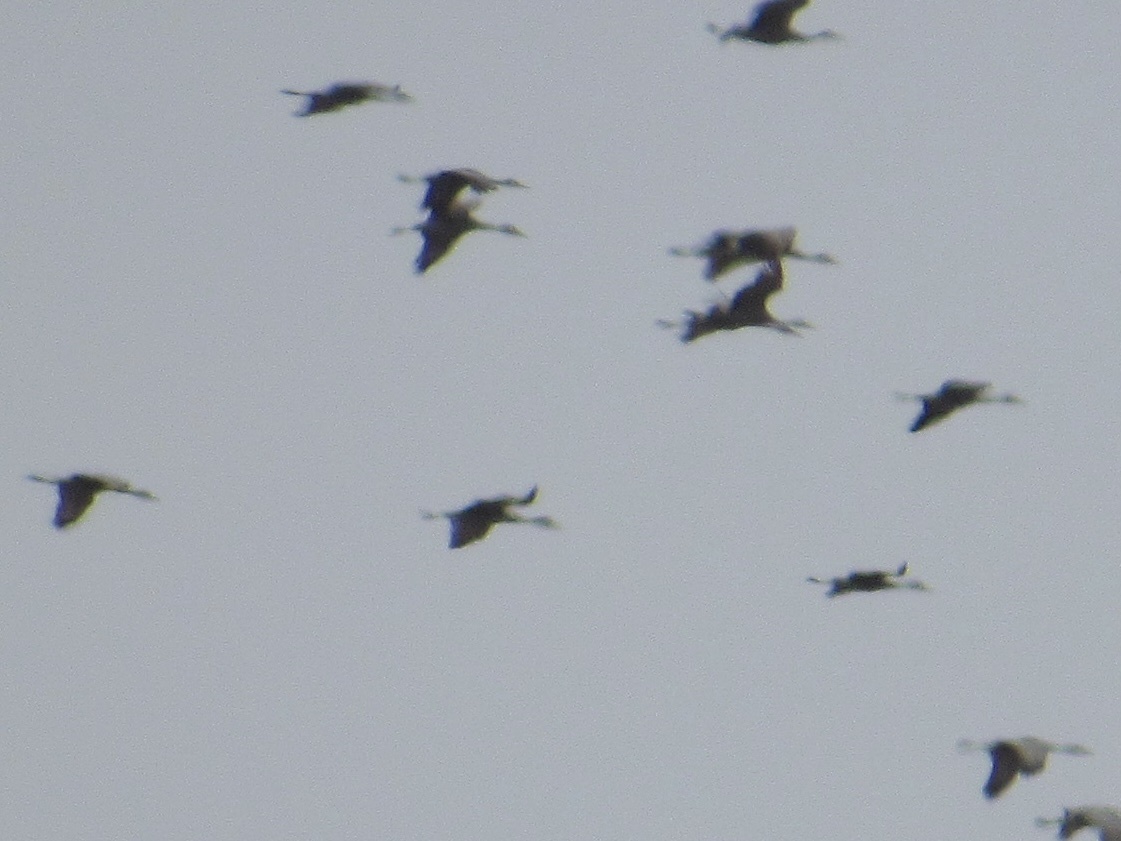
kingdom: Animalia
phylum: Chordata
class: Aves
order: Gruiformes
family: Gruidae
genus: Grus
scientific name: Grus canadensis
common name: Sandhill crane
